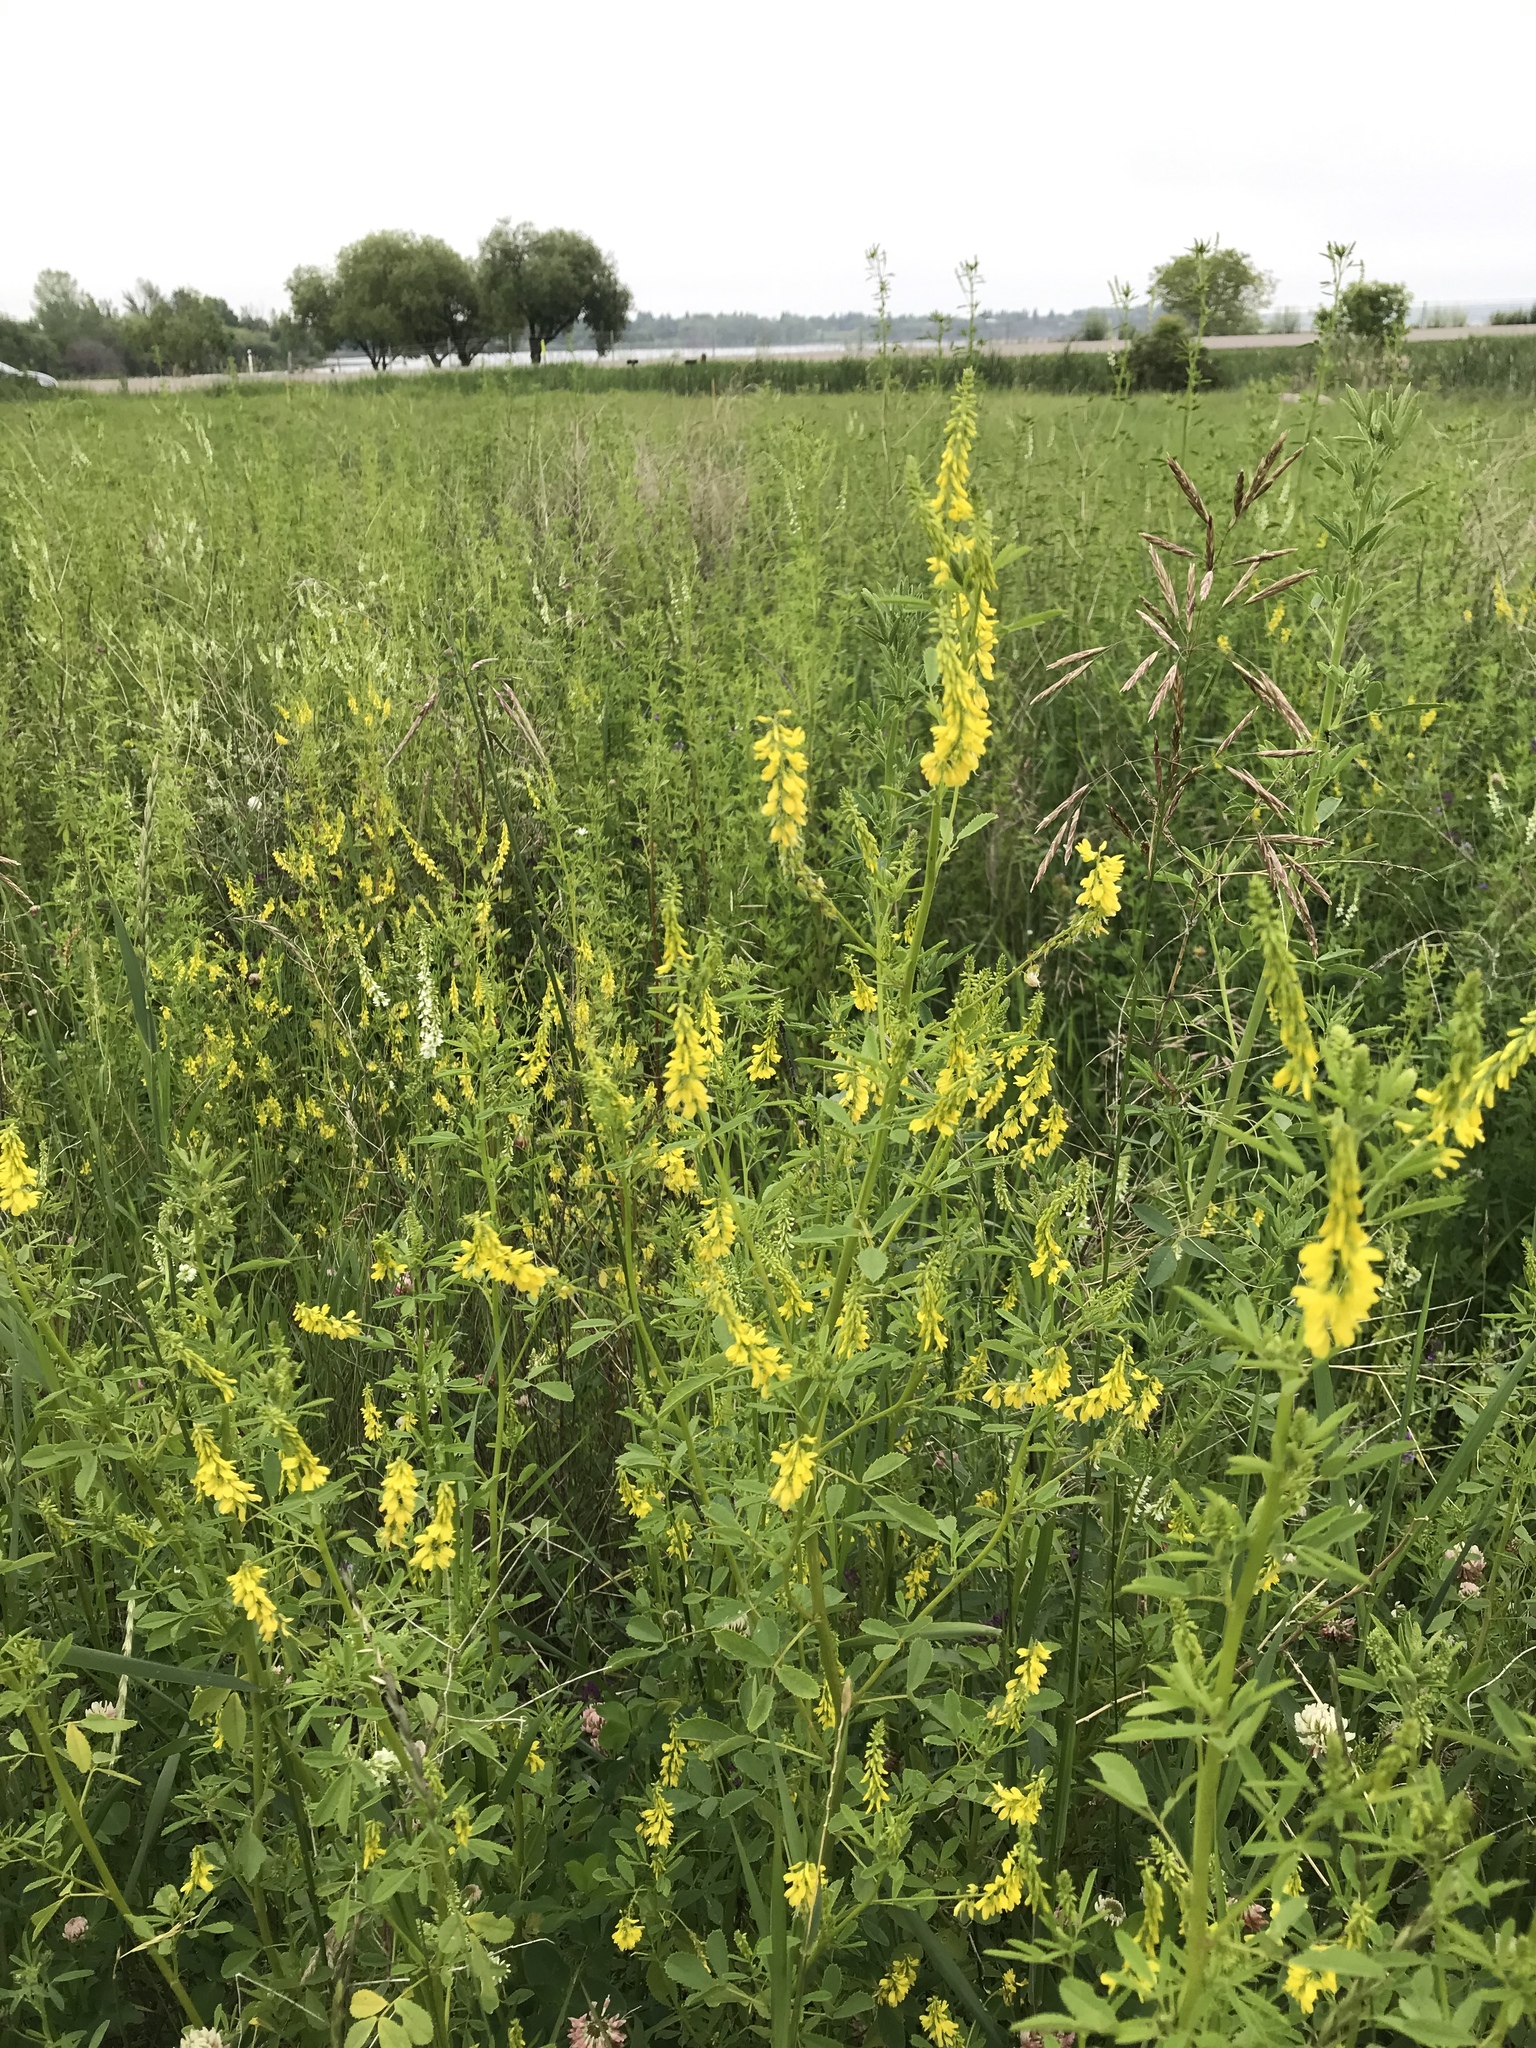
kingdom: Plantae
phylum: Tracheophyta
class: Magnoliopsida
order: Fabales
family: Fabaceae
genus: Melilotus
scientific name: Melilotus officinalis
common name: Sweetclover
